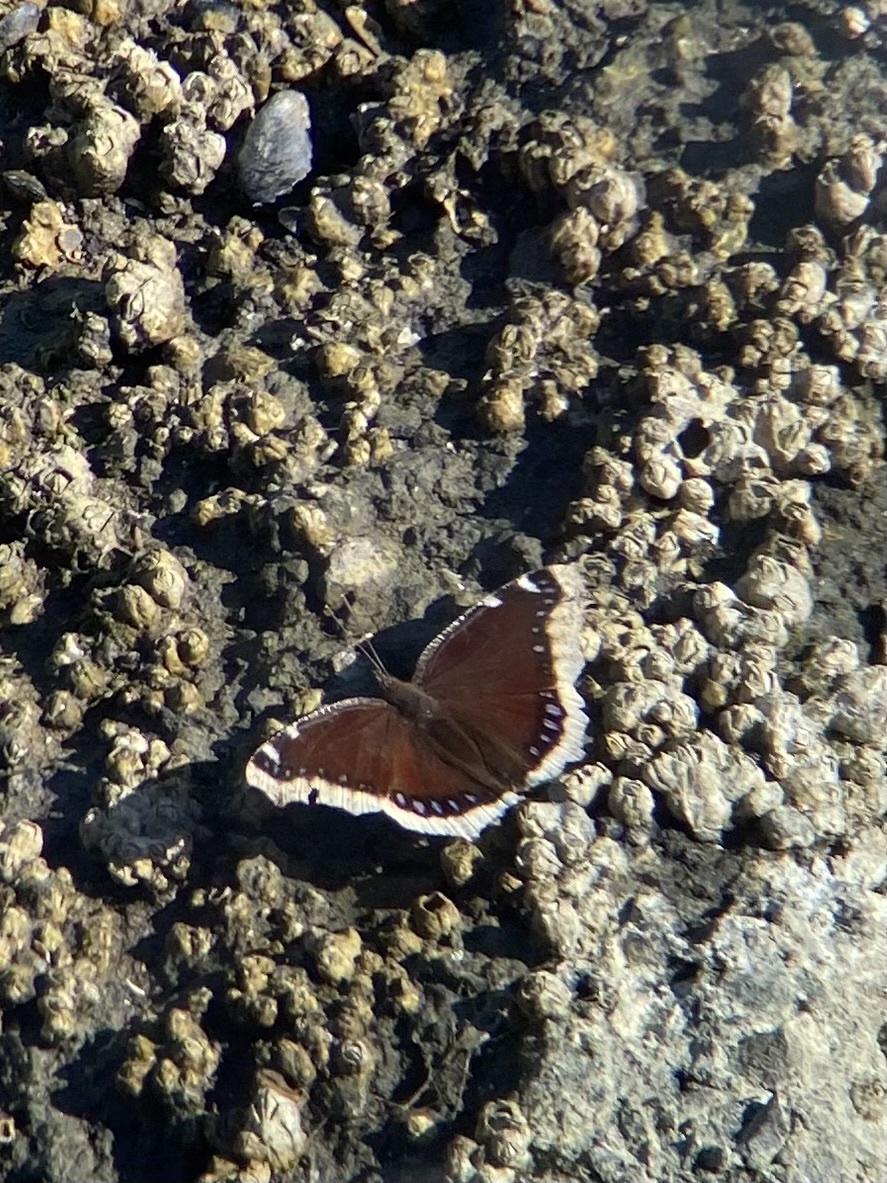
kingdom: Animalia
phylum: Arthropoda
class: Insecta
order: Lepidoptera
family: Nymphalidae
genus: Nymphalis
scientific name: Nymphalis antiopa
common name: Camberwell beauty
